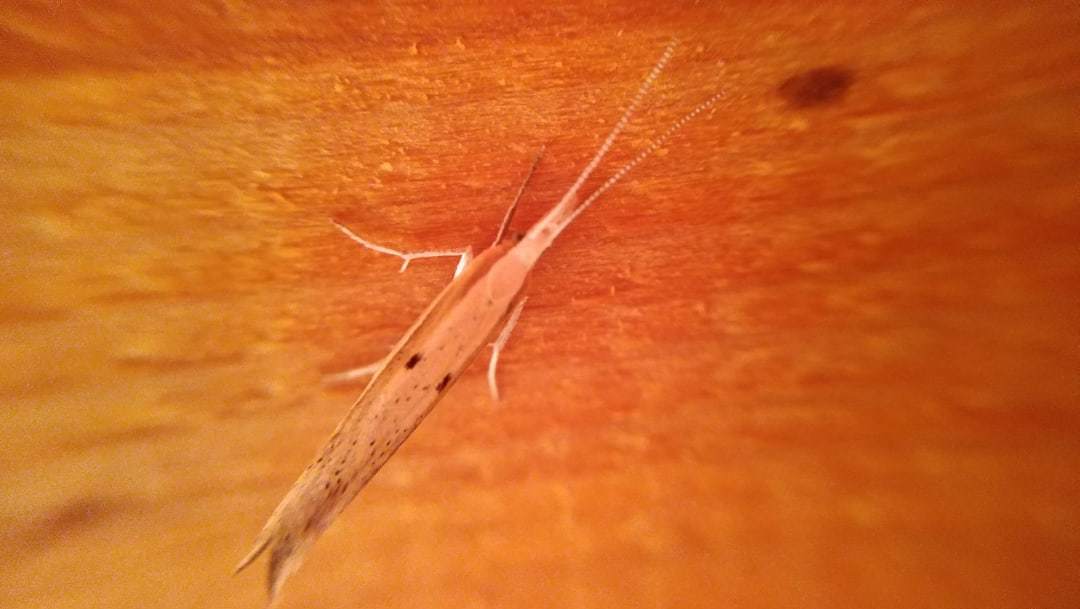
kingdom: Animalia
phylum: Arthropoda
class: Insecta
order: Lepidoptera
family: Ypsolophidae
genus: Ypsolopha
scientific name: Ypsolopha nemorella
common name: Hooked smudge
